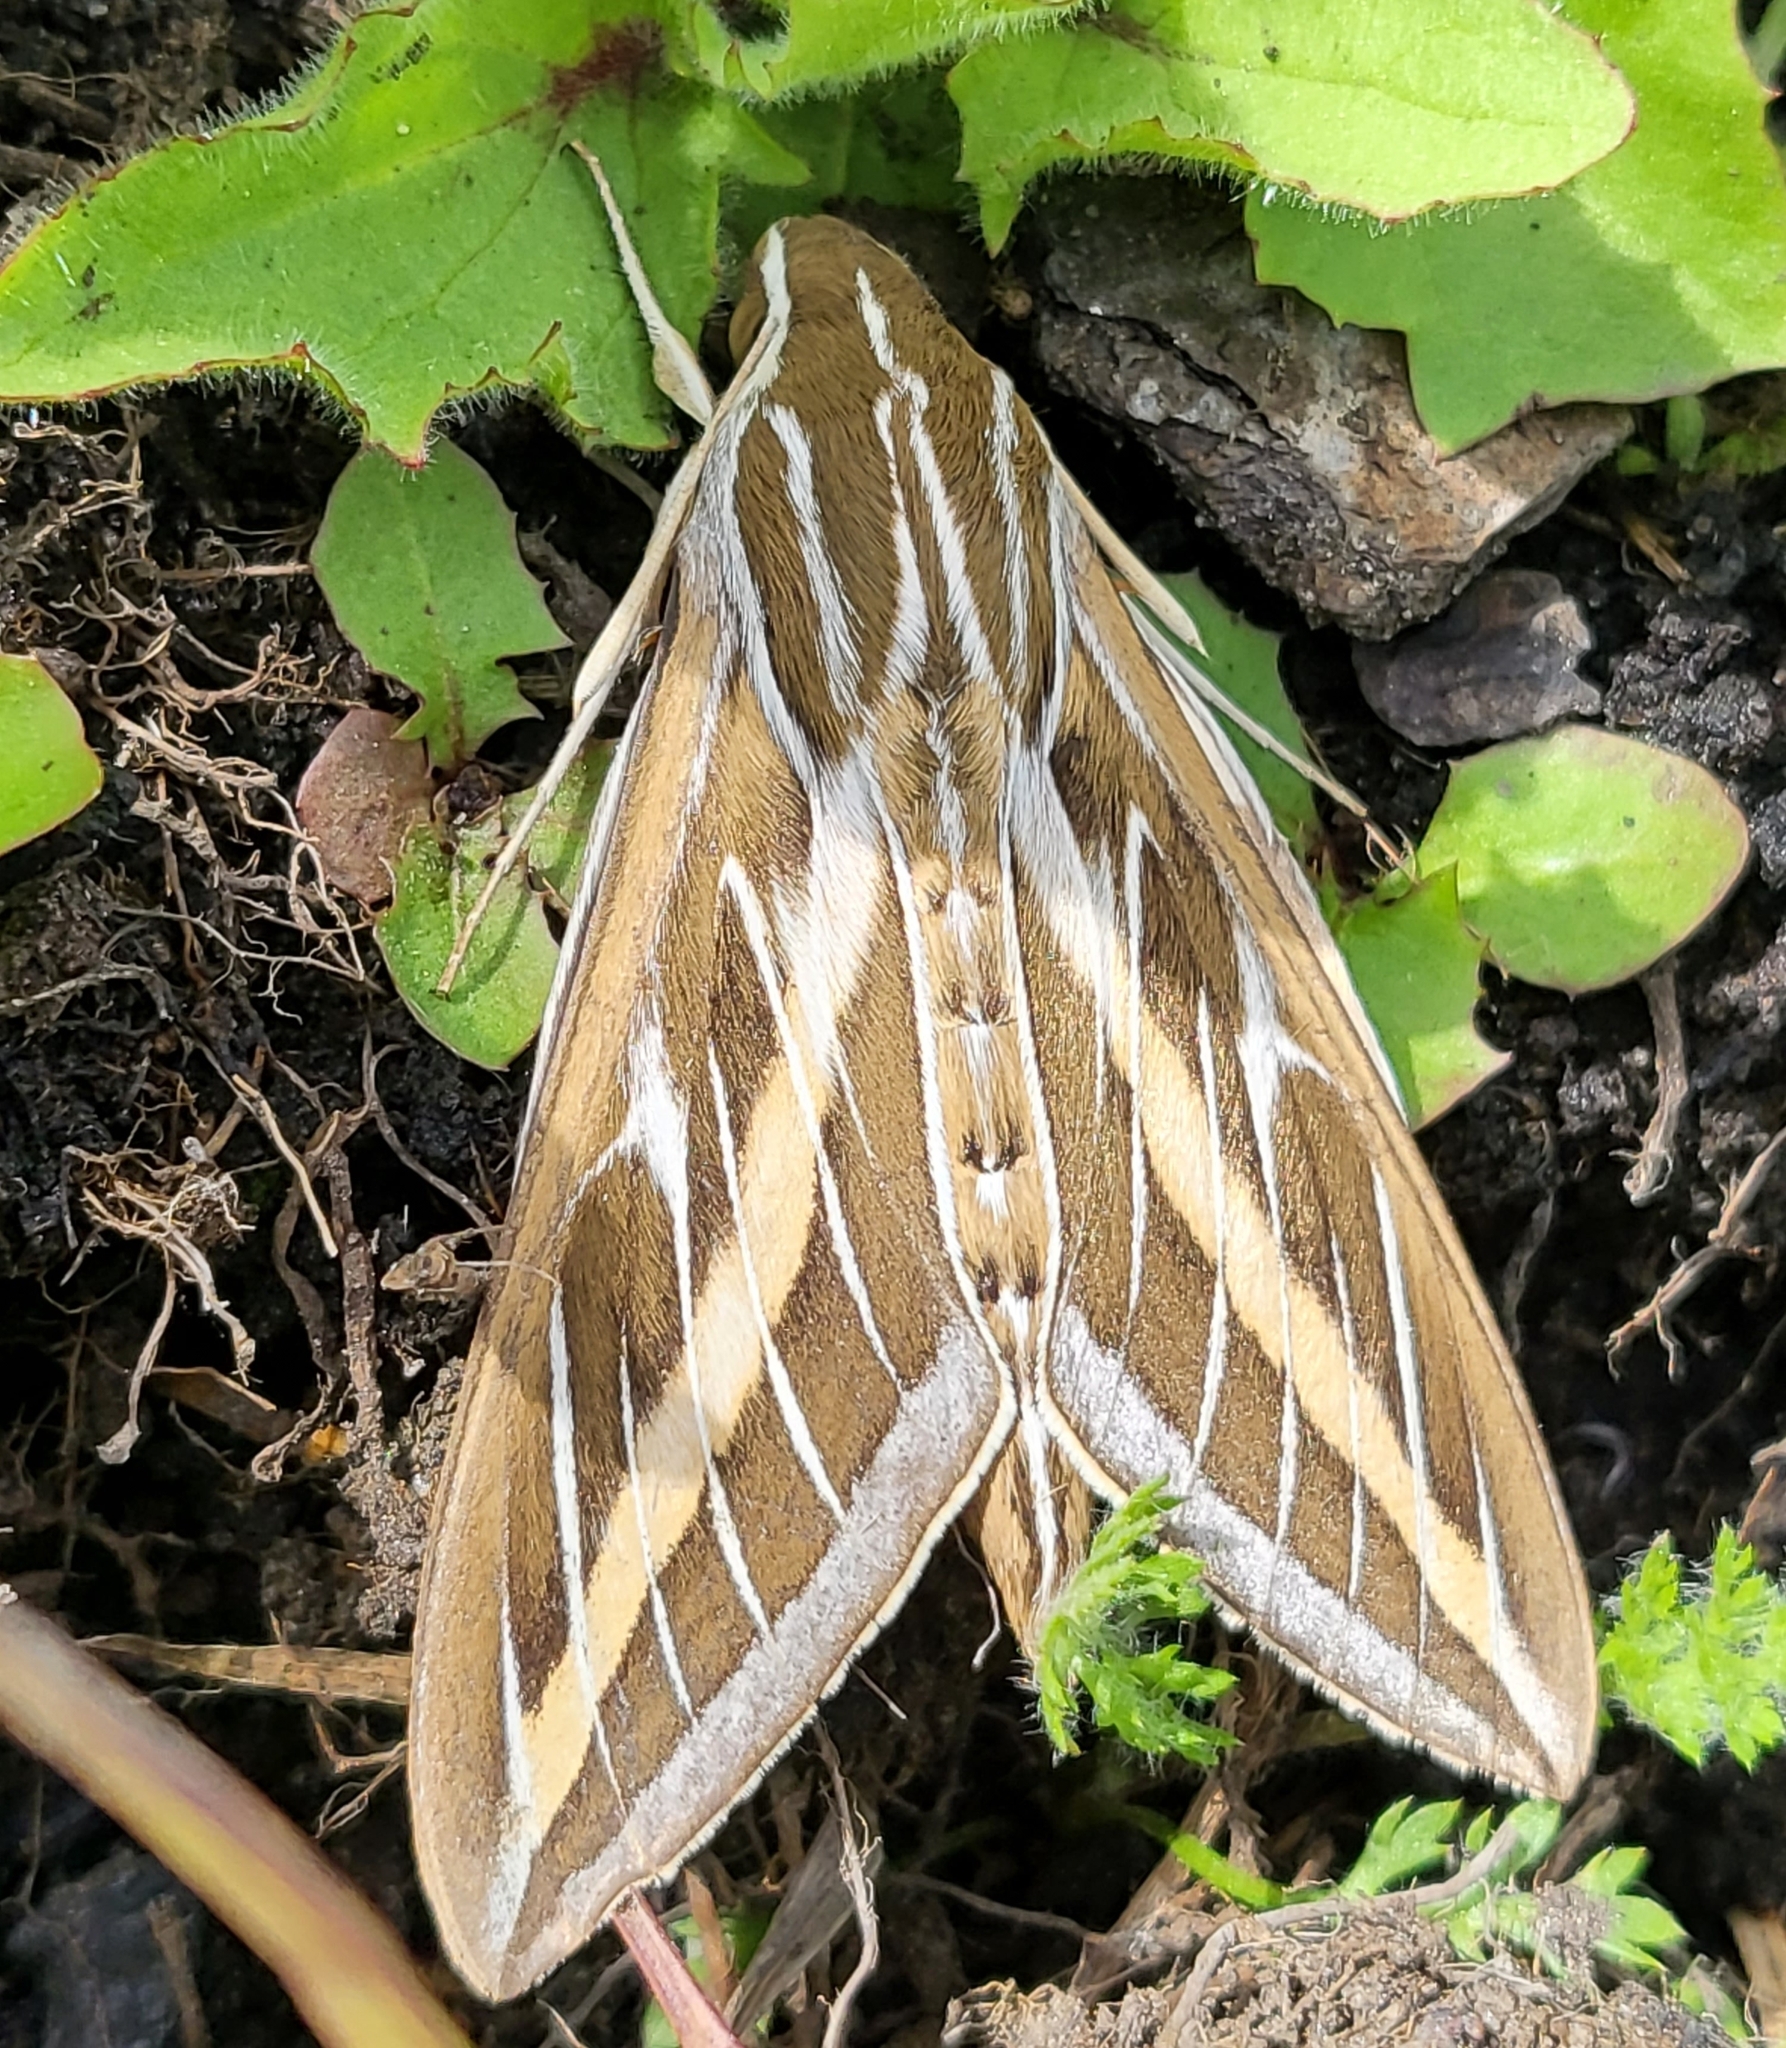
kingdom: Animalia
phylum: Arthropoda
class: Insecta
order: Lepidoptera
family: Sphingidae
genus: Hyles
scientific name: Hyles lineata
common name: White-lined sphinx
